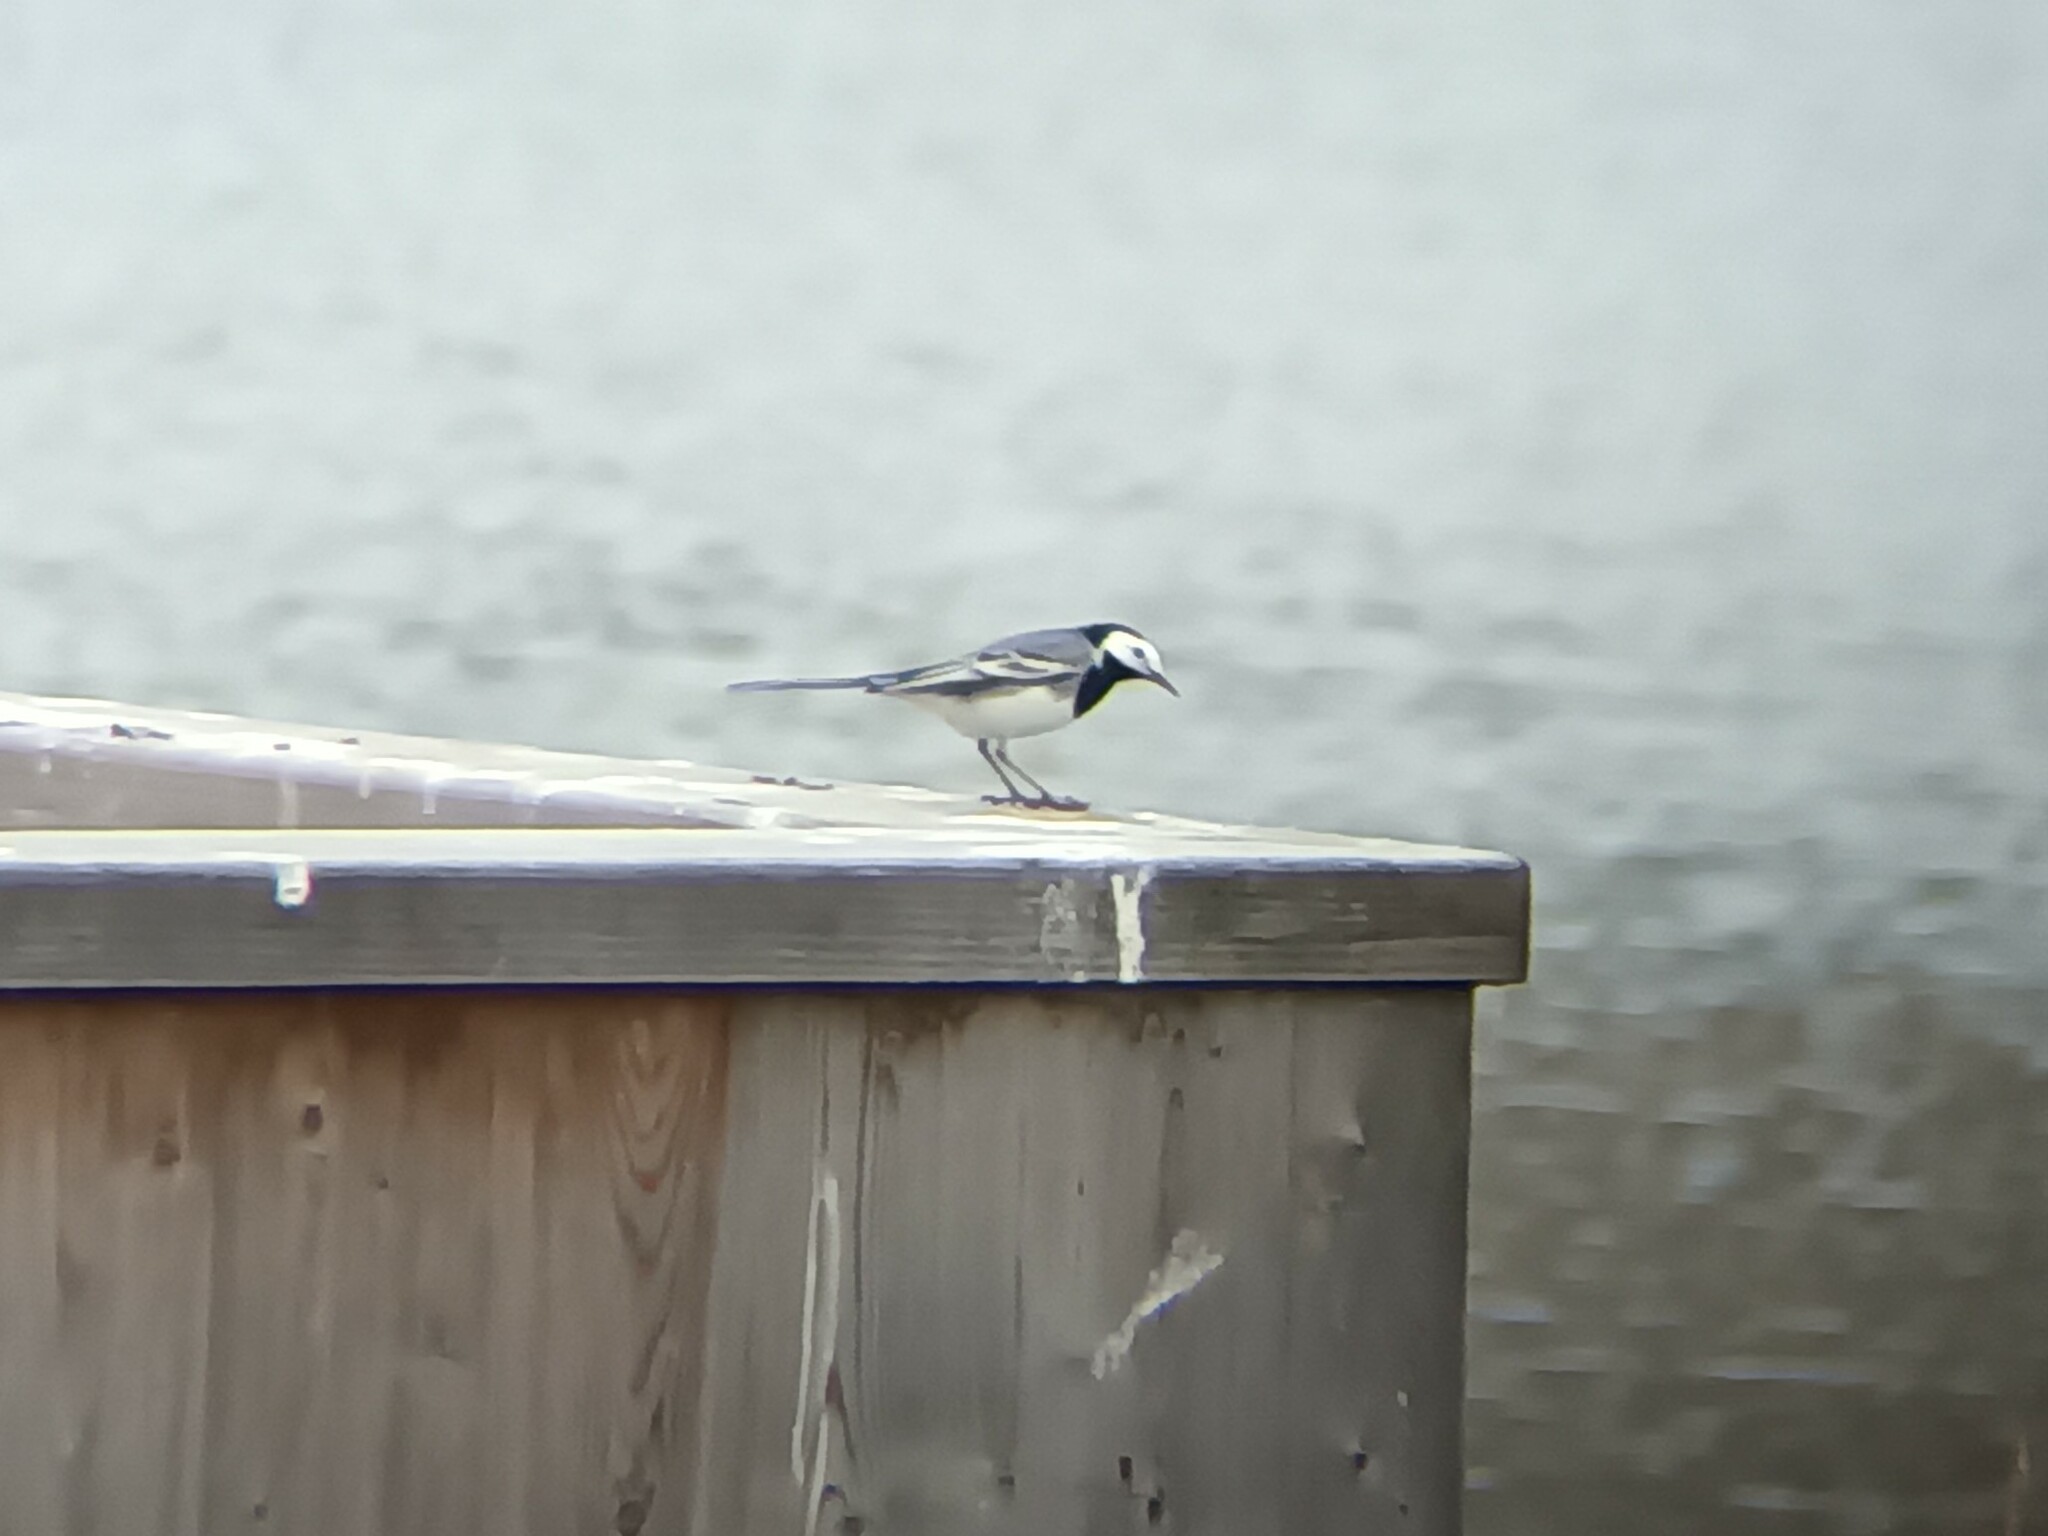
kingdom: Animalia
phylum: Chordata
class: Aves
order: Passeriformes
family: Motacillidae
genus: Motacilla
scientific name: Motacilla alba
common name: White wagtail
